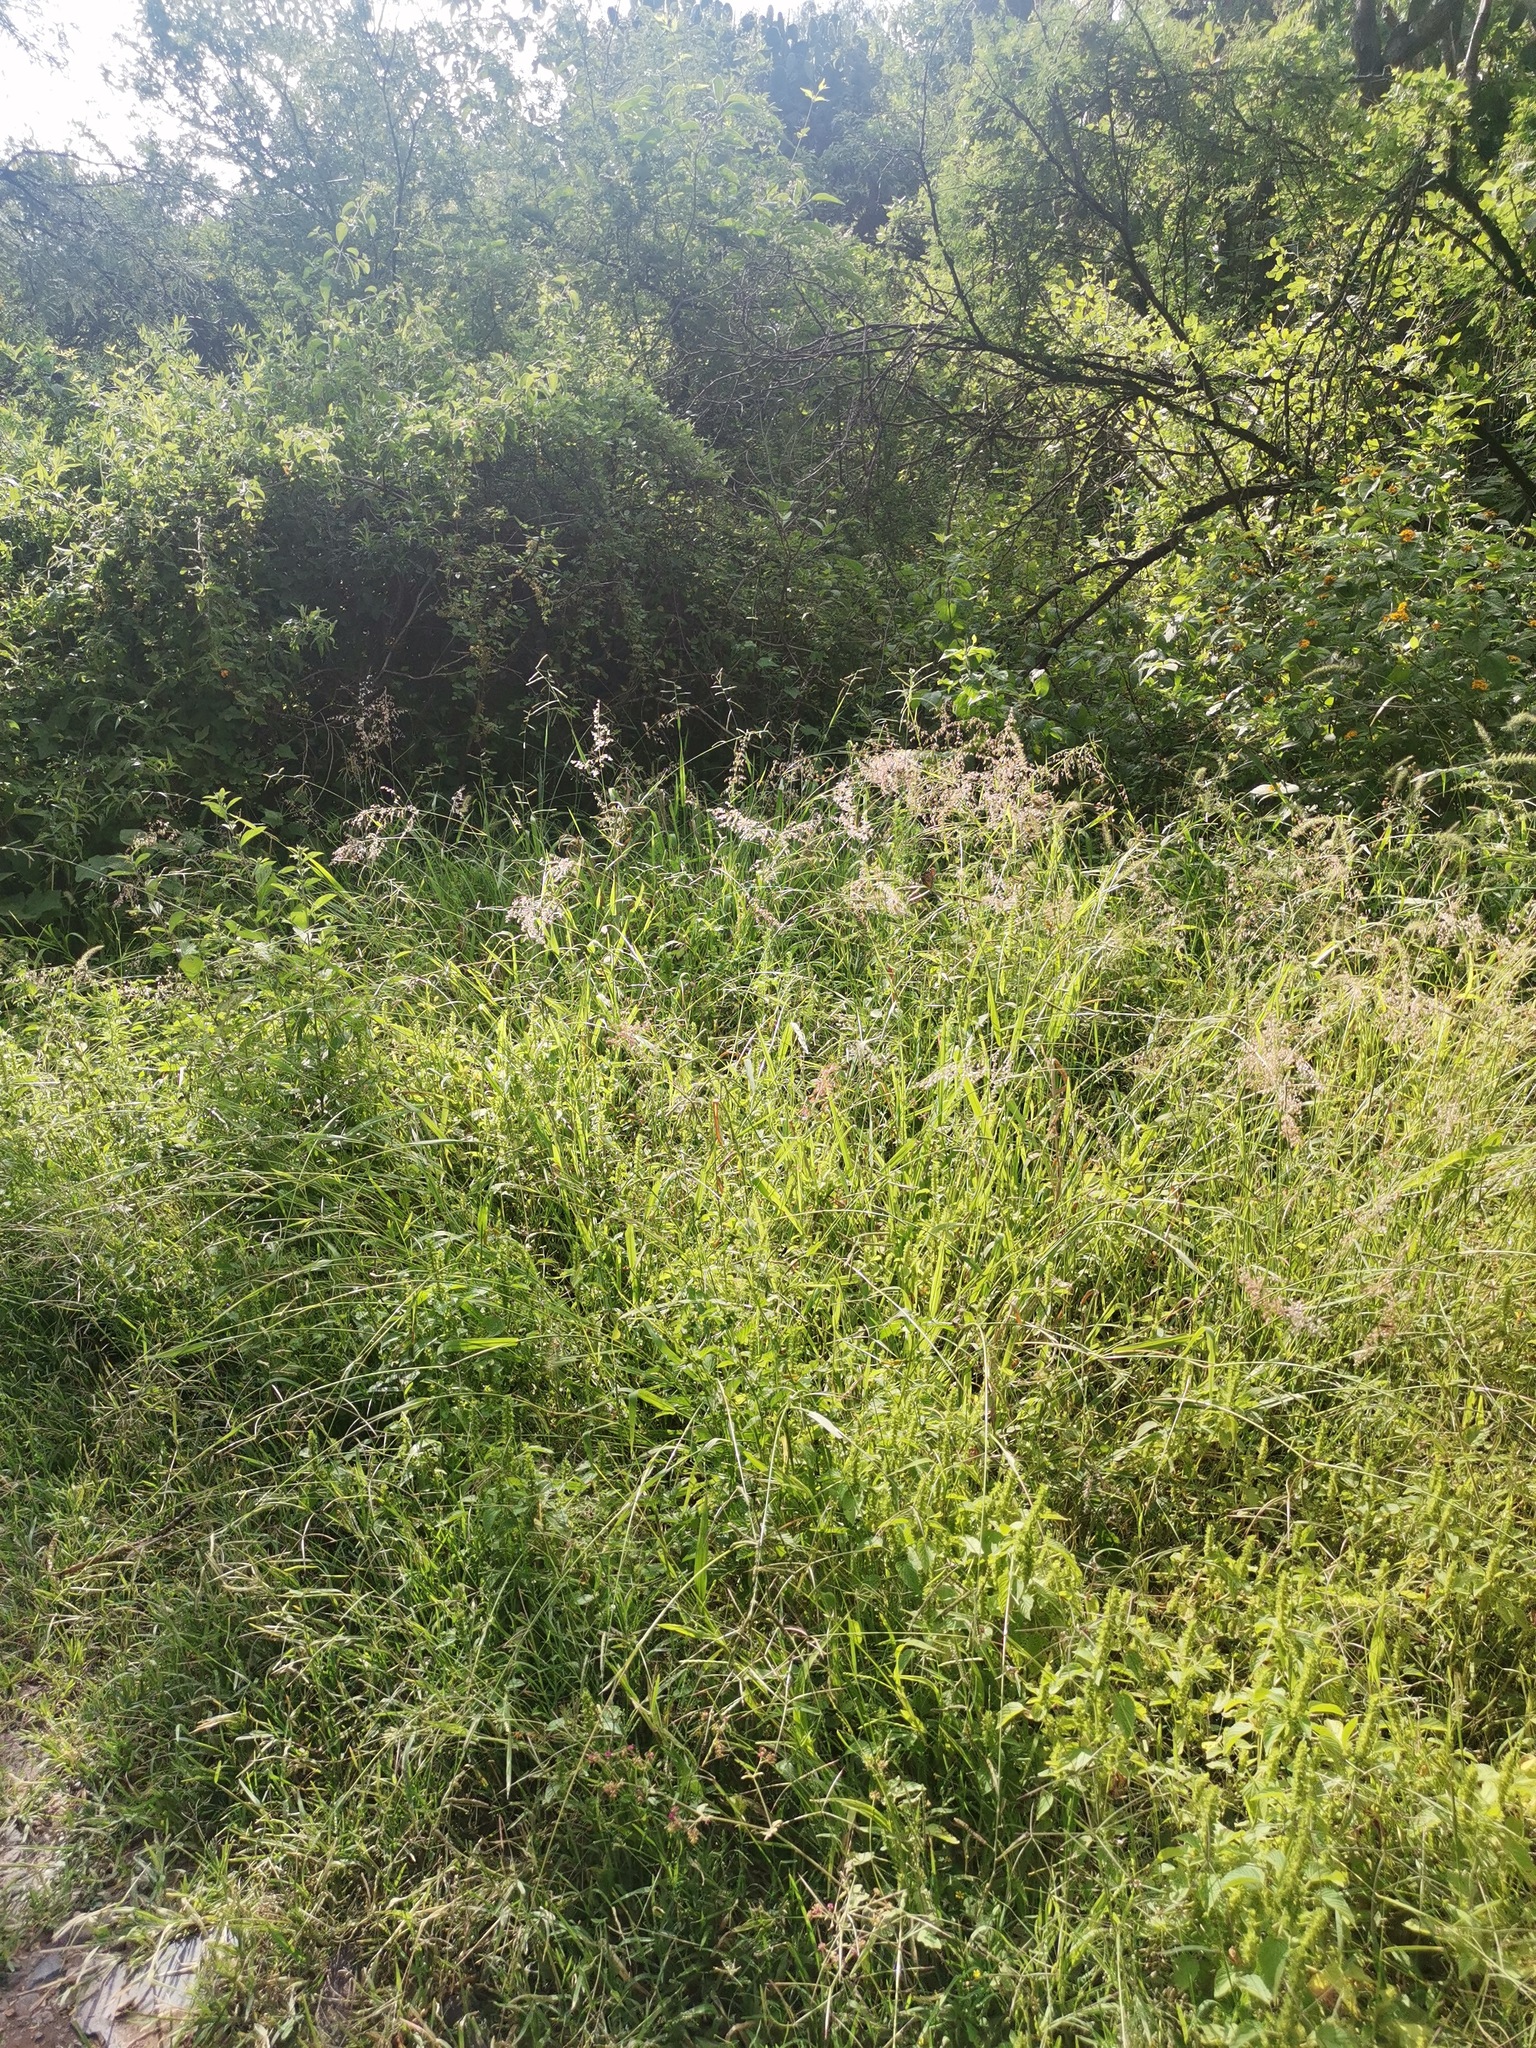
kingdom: Plantae
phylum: Tracheophyta
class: Liliopsida
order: Poales
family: Poaceae
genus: Melinis
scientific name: Melinis repens
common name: Rose natal grass
